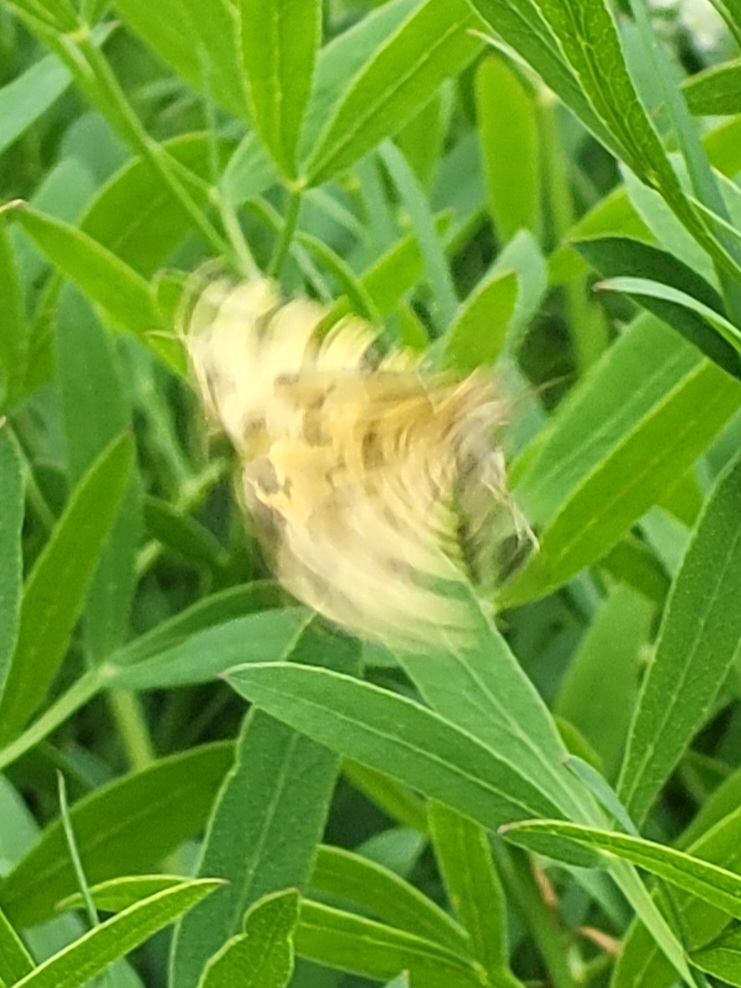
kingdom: Animalia
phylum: Arthropoda
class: Insecta
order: Lepidoptera
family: Geometridae
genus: Pseudopanthera
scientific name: Pseudopanthera macularia
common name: Speckled yellow
